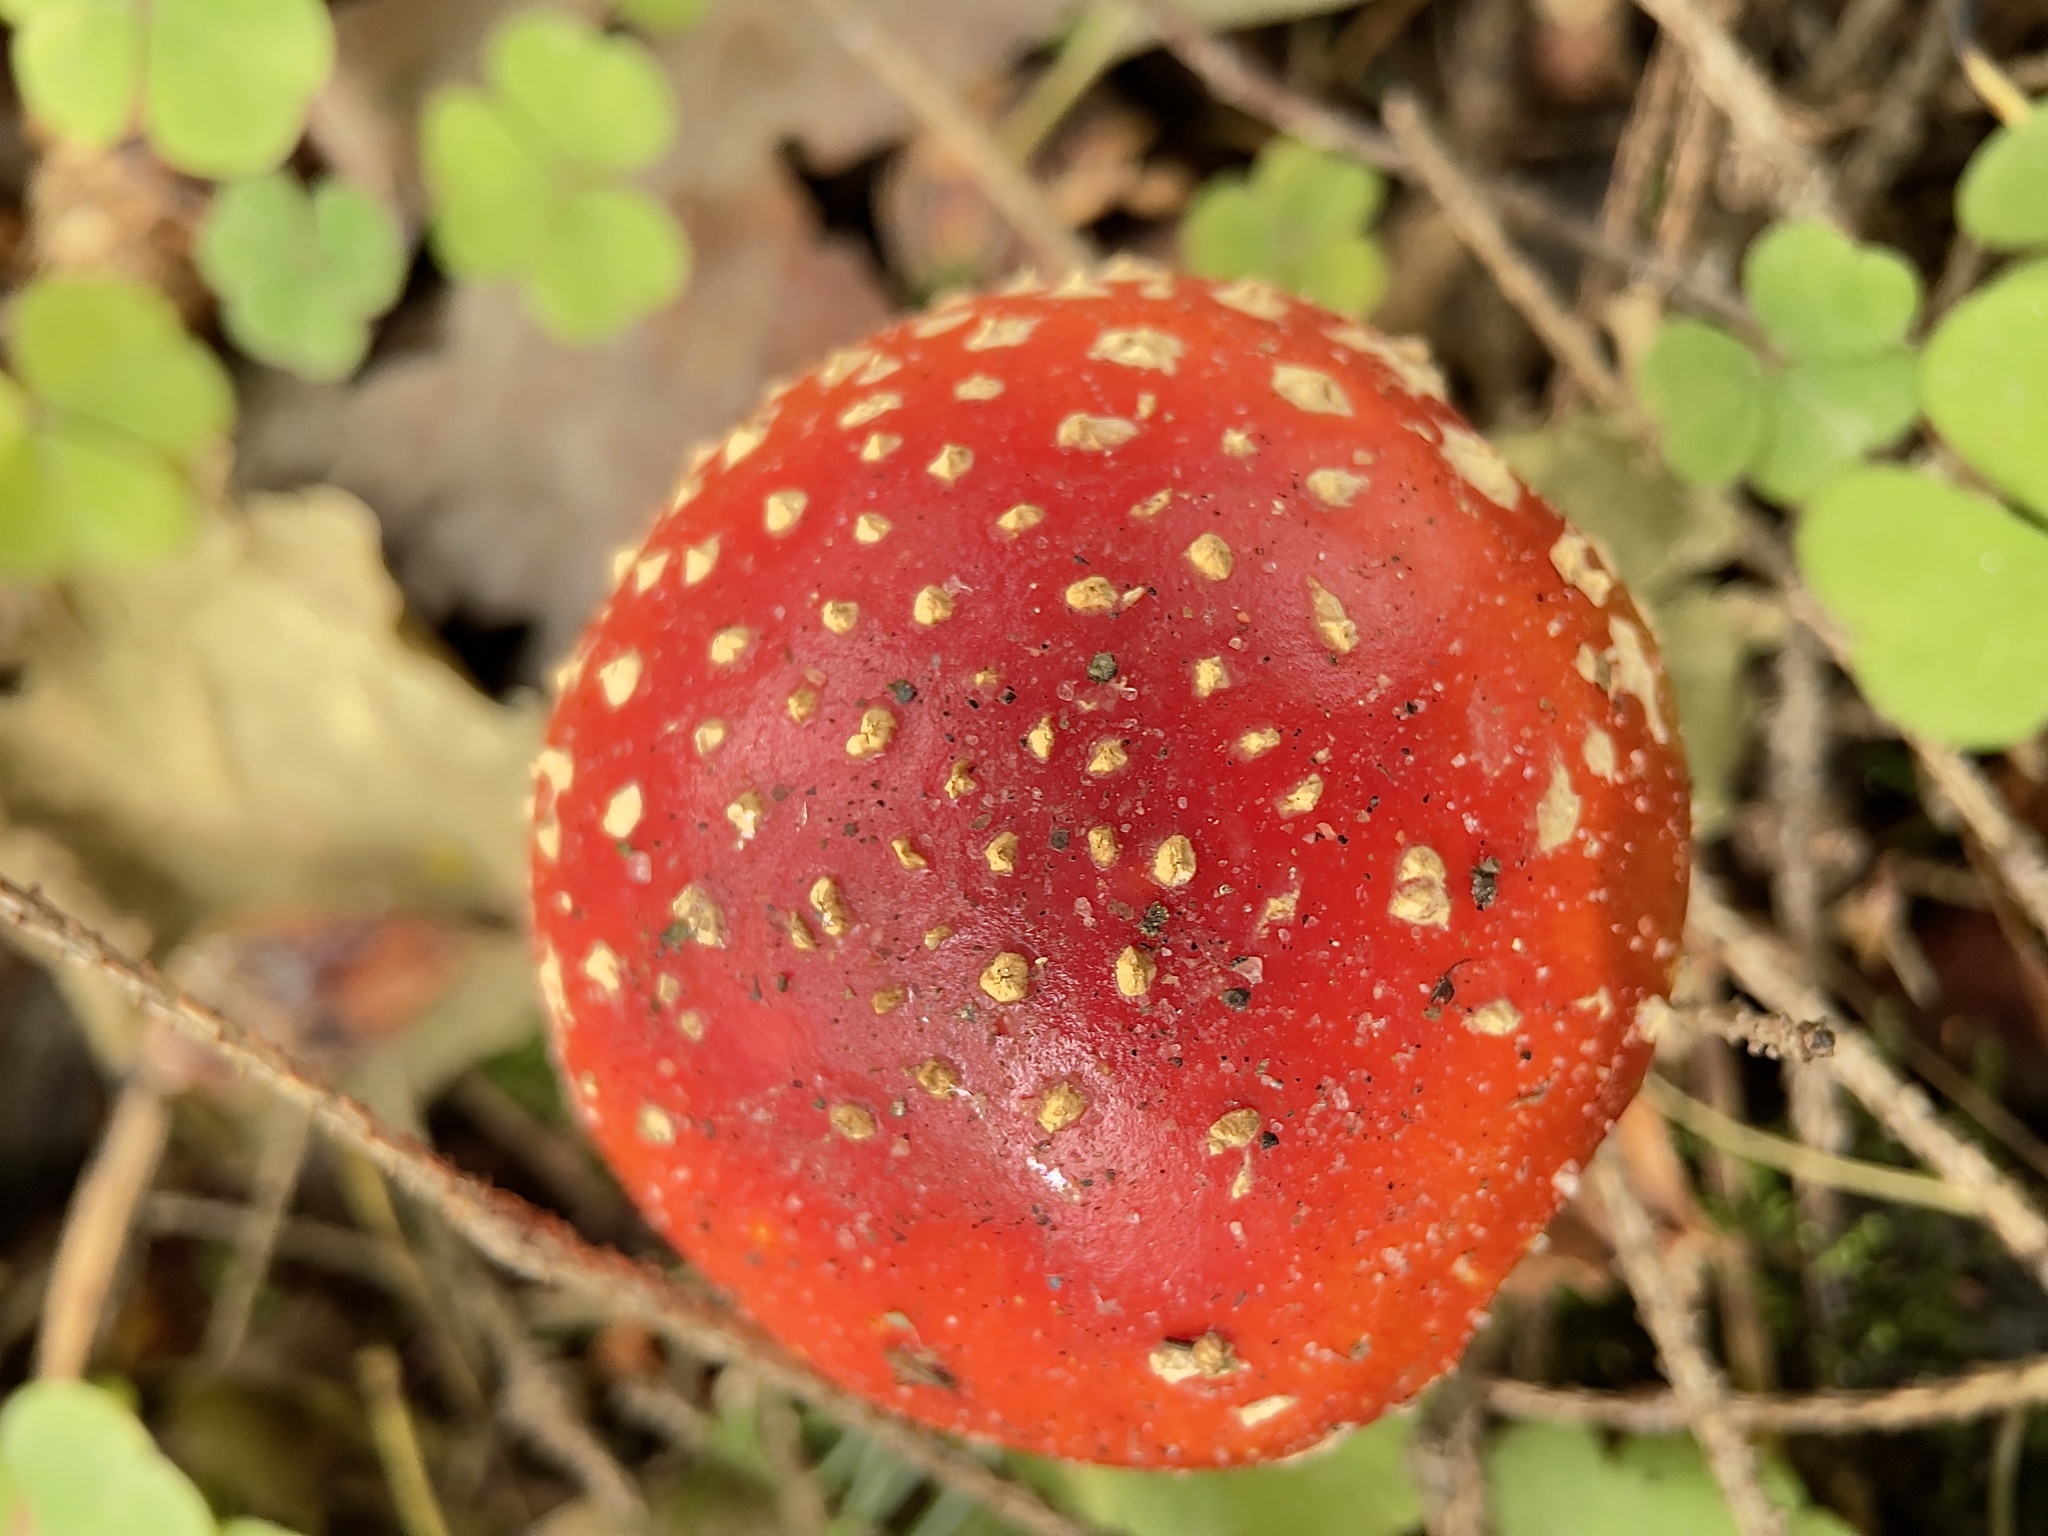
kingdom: Fungi
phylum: Basidiomycota
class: Agaricomycetes
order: Agaricales
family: Amanitaceae
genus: Amanita
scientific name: Amanita muscaria
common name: Fly agaric
